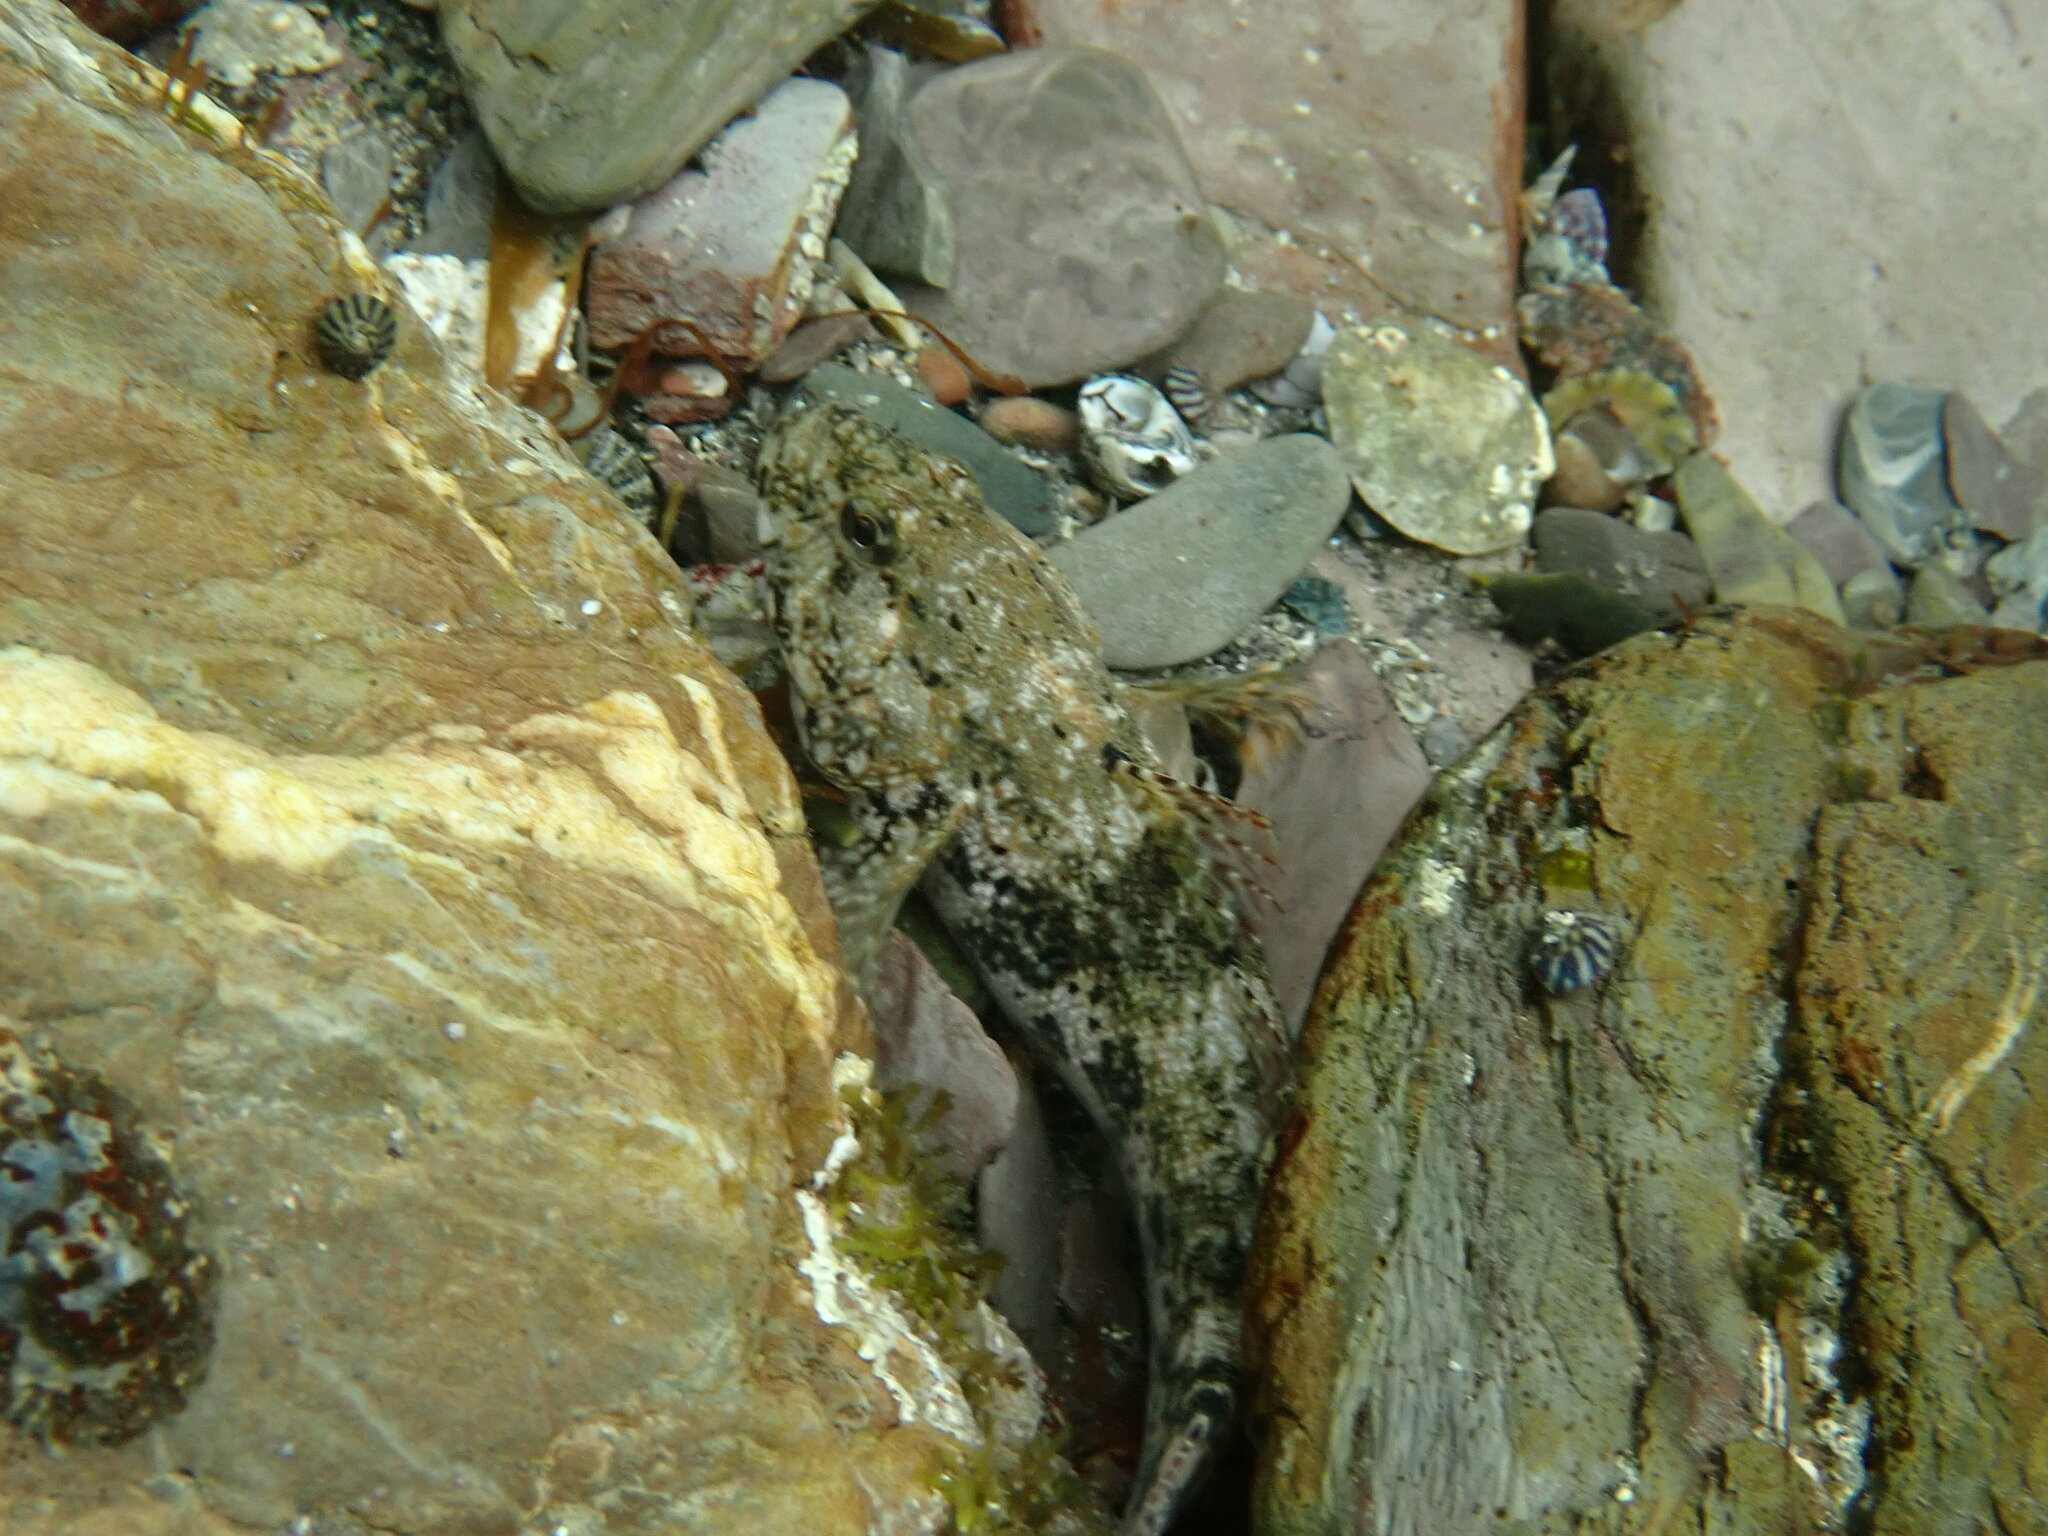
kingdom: Animalia
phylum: Chordata
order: Perciformes
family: Gobiidae
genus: Gobius
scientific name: Gobius cobitis
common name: Giant goby
